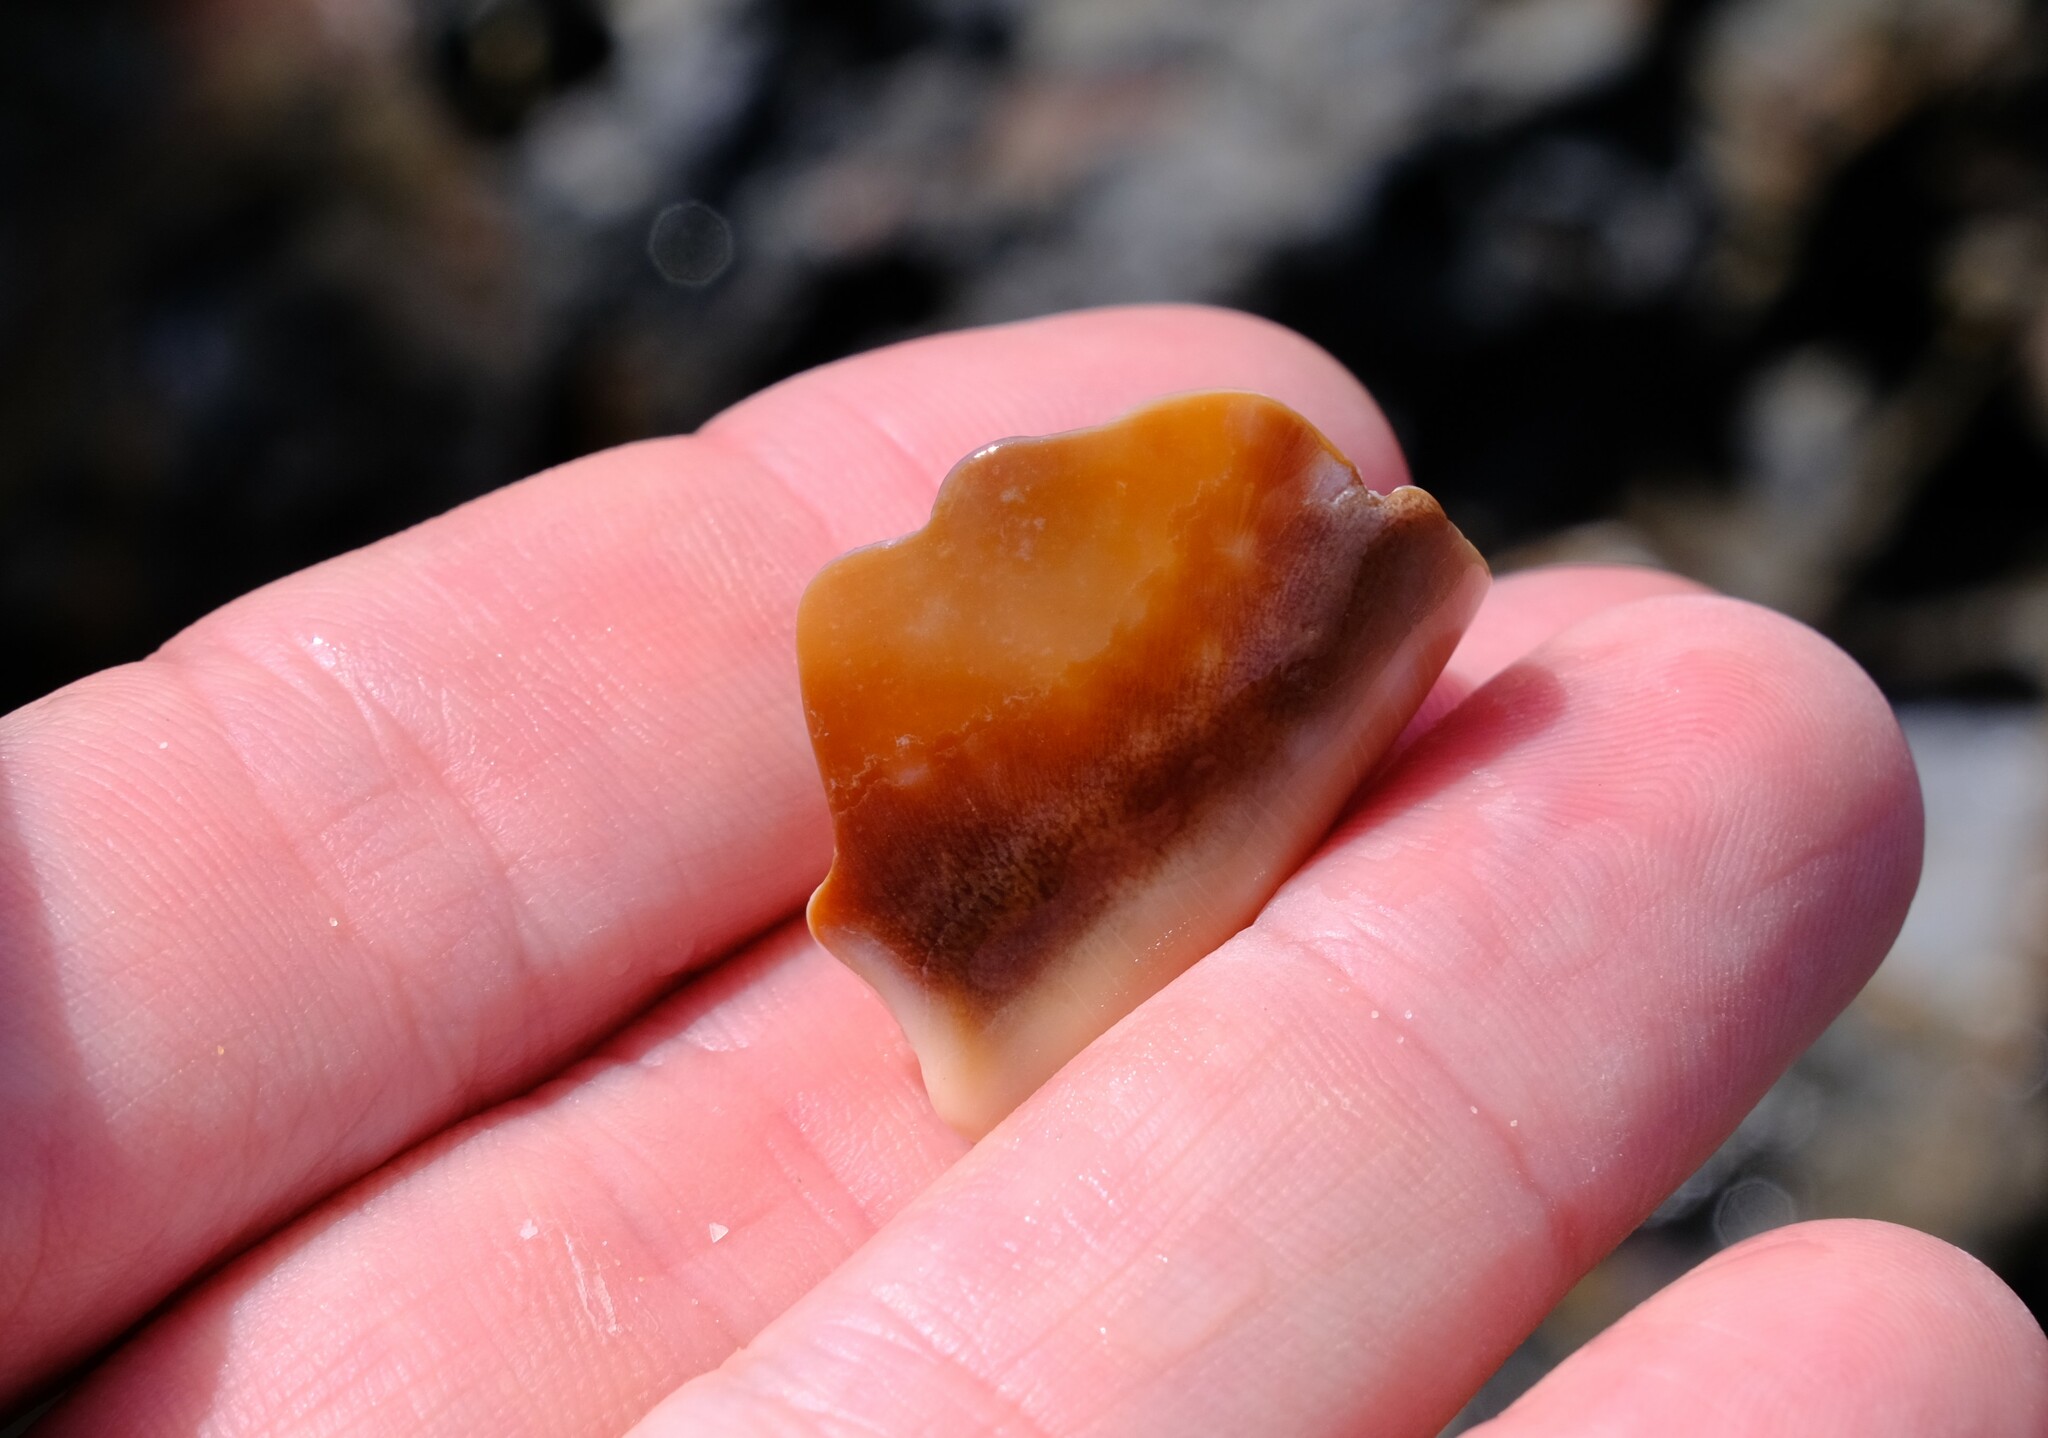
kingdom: Animalia
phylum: Mollusca
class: Gastropoda
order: Littorinimorpha
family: Cypraeidae
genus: Lyncina
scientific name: Lyncina vitellus
